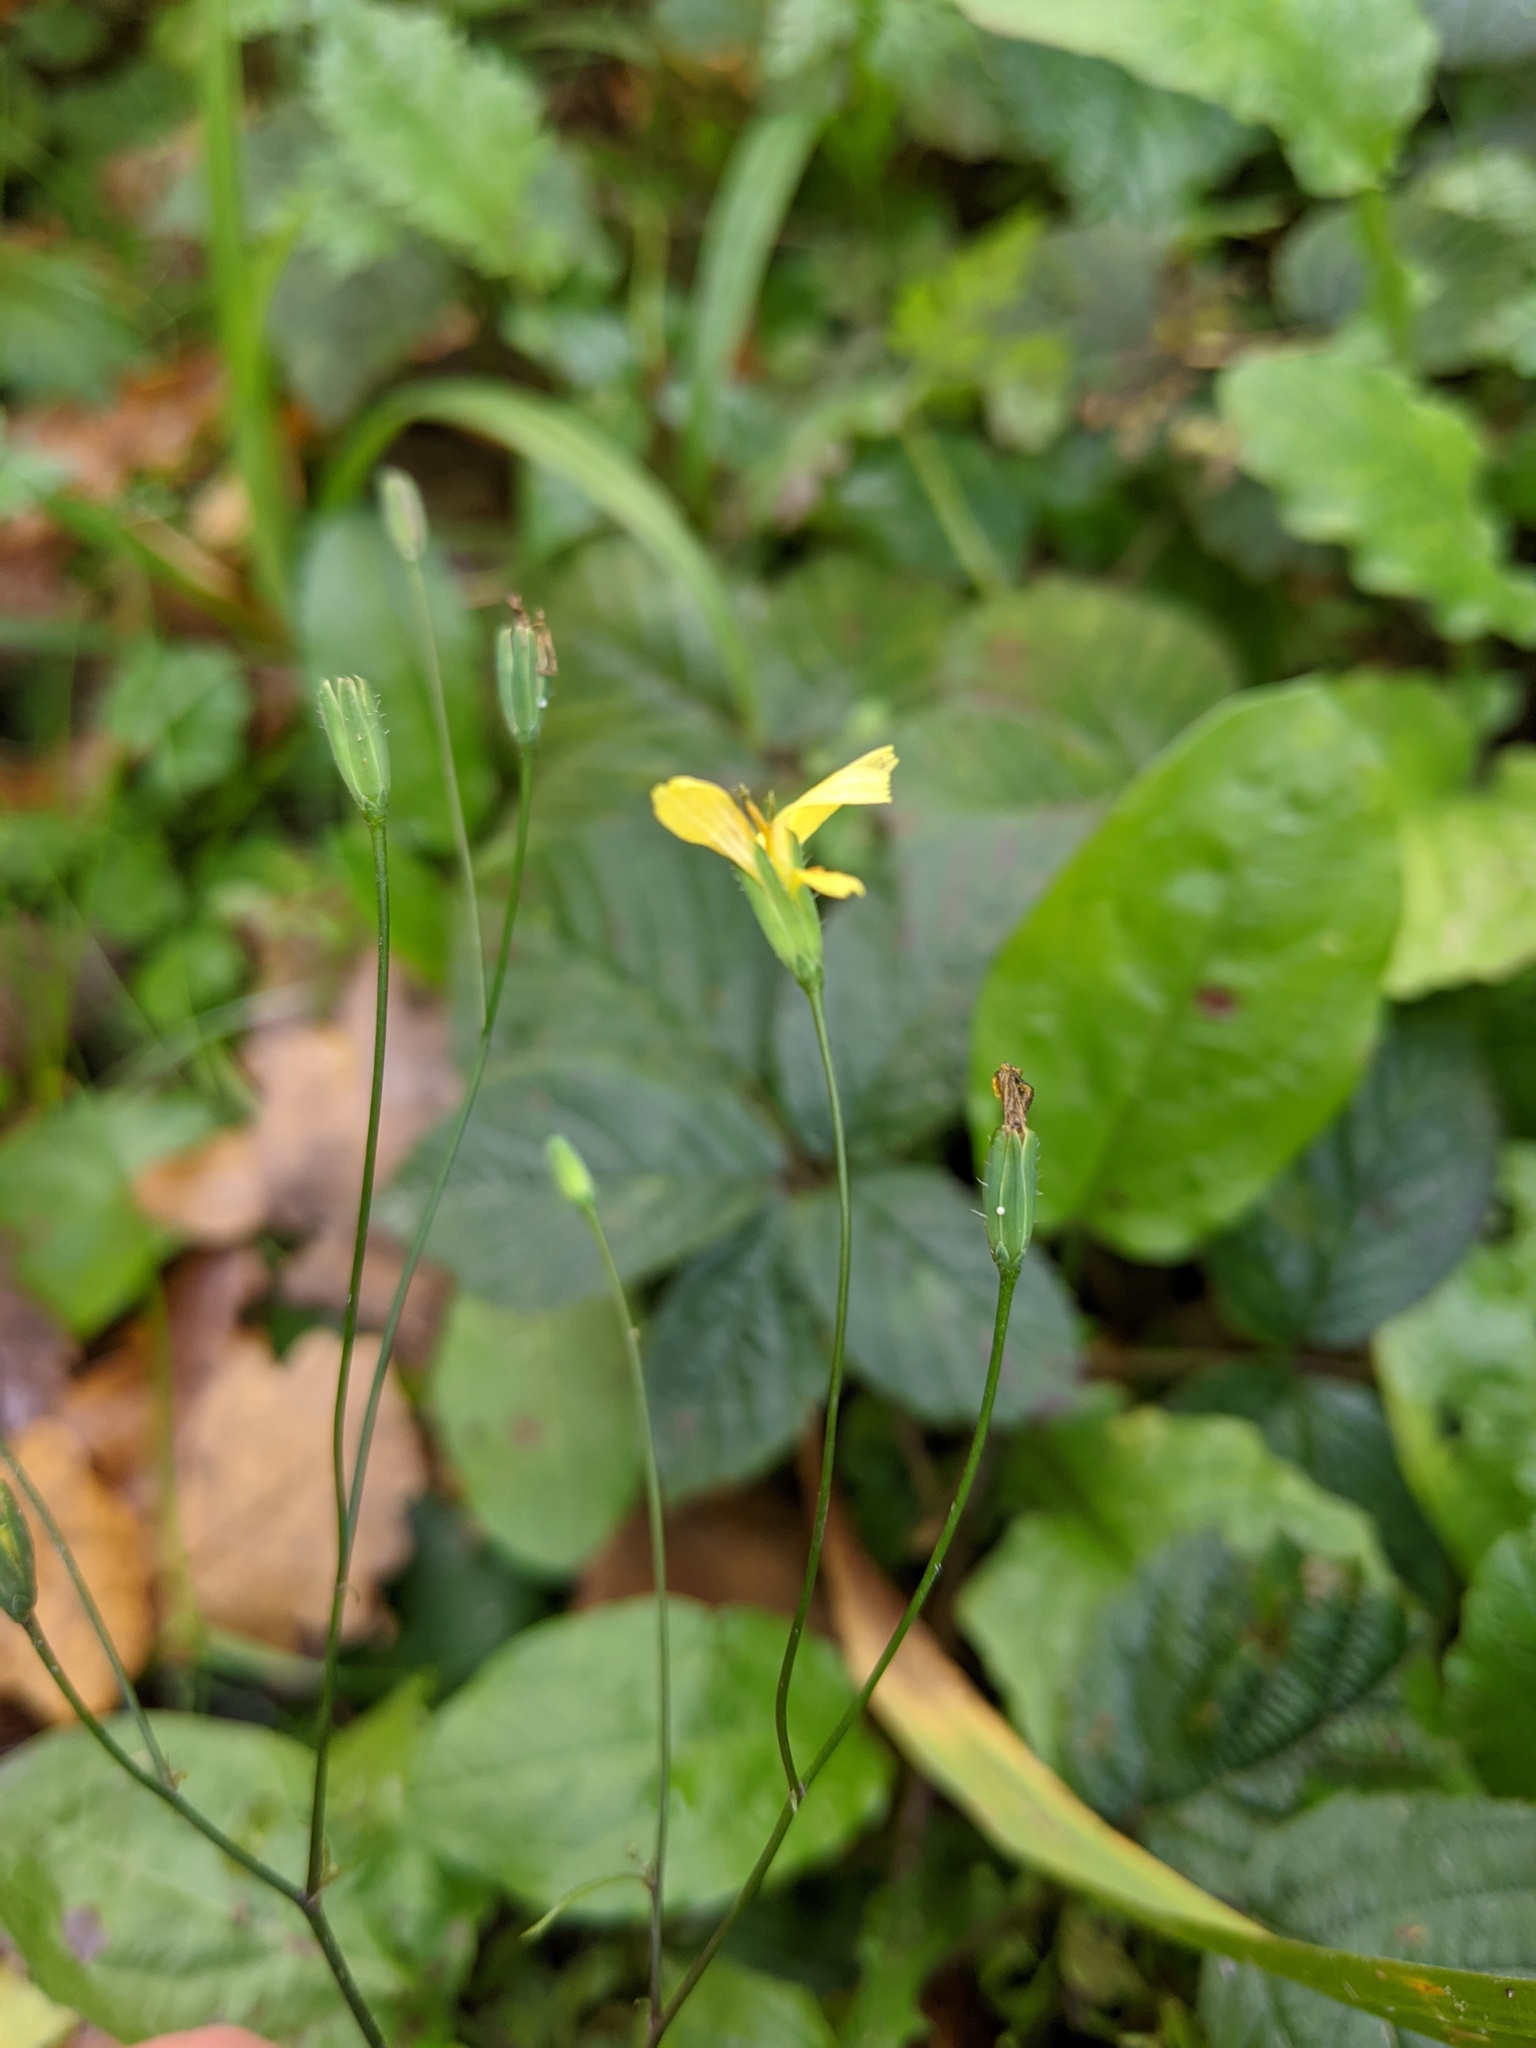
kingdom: Plantae
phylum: Tracheophyta
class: Magnoliopsida
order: Asterales
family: Asteraceae
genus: Lapsana
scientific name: Lapsana communis
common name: Nipplewort
